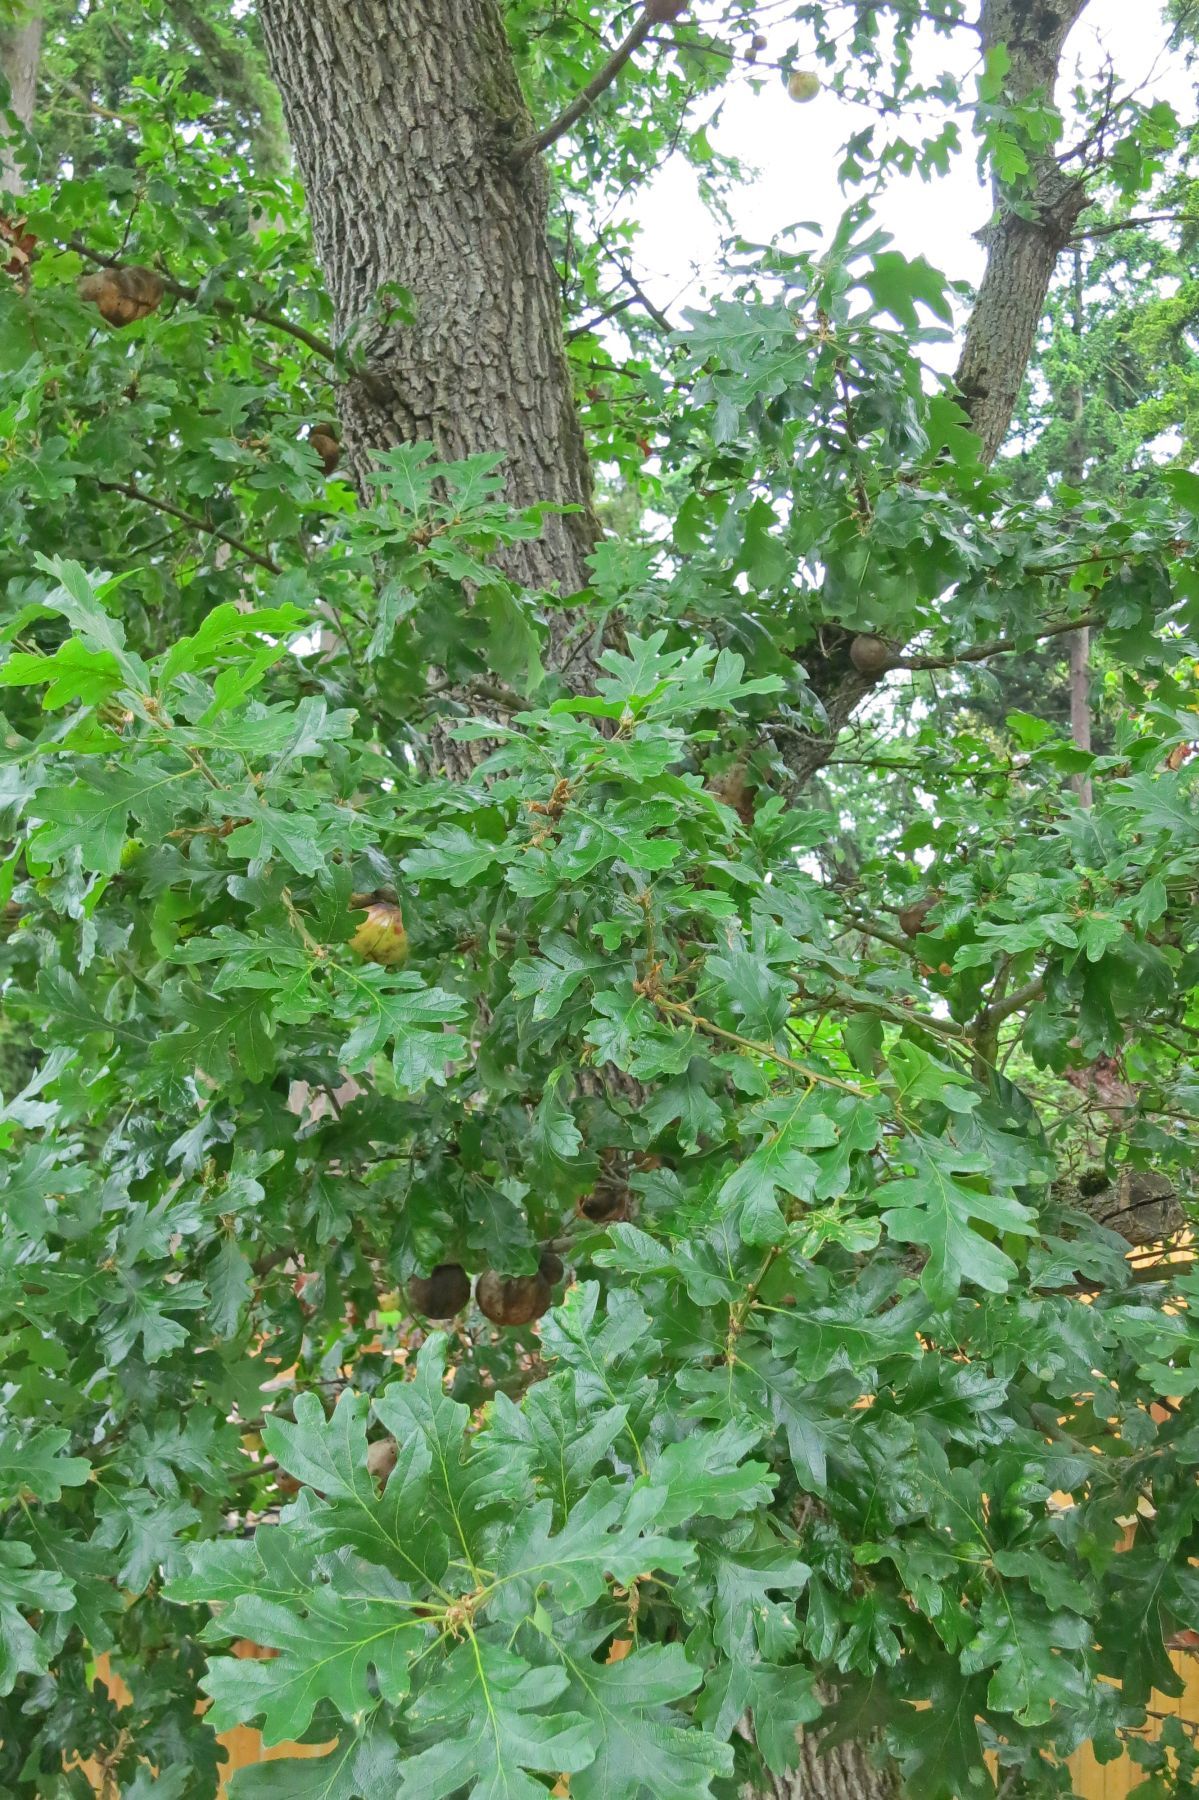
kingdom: Plantae
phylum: Tracheophyta
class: Magnoliopsida
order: Fagales
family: Fagaceae
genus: Quercus
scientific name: Quercus garryana
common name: Garry oak
